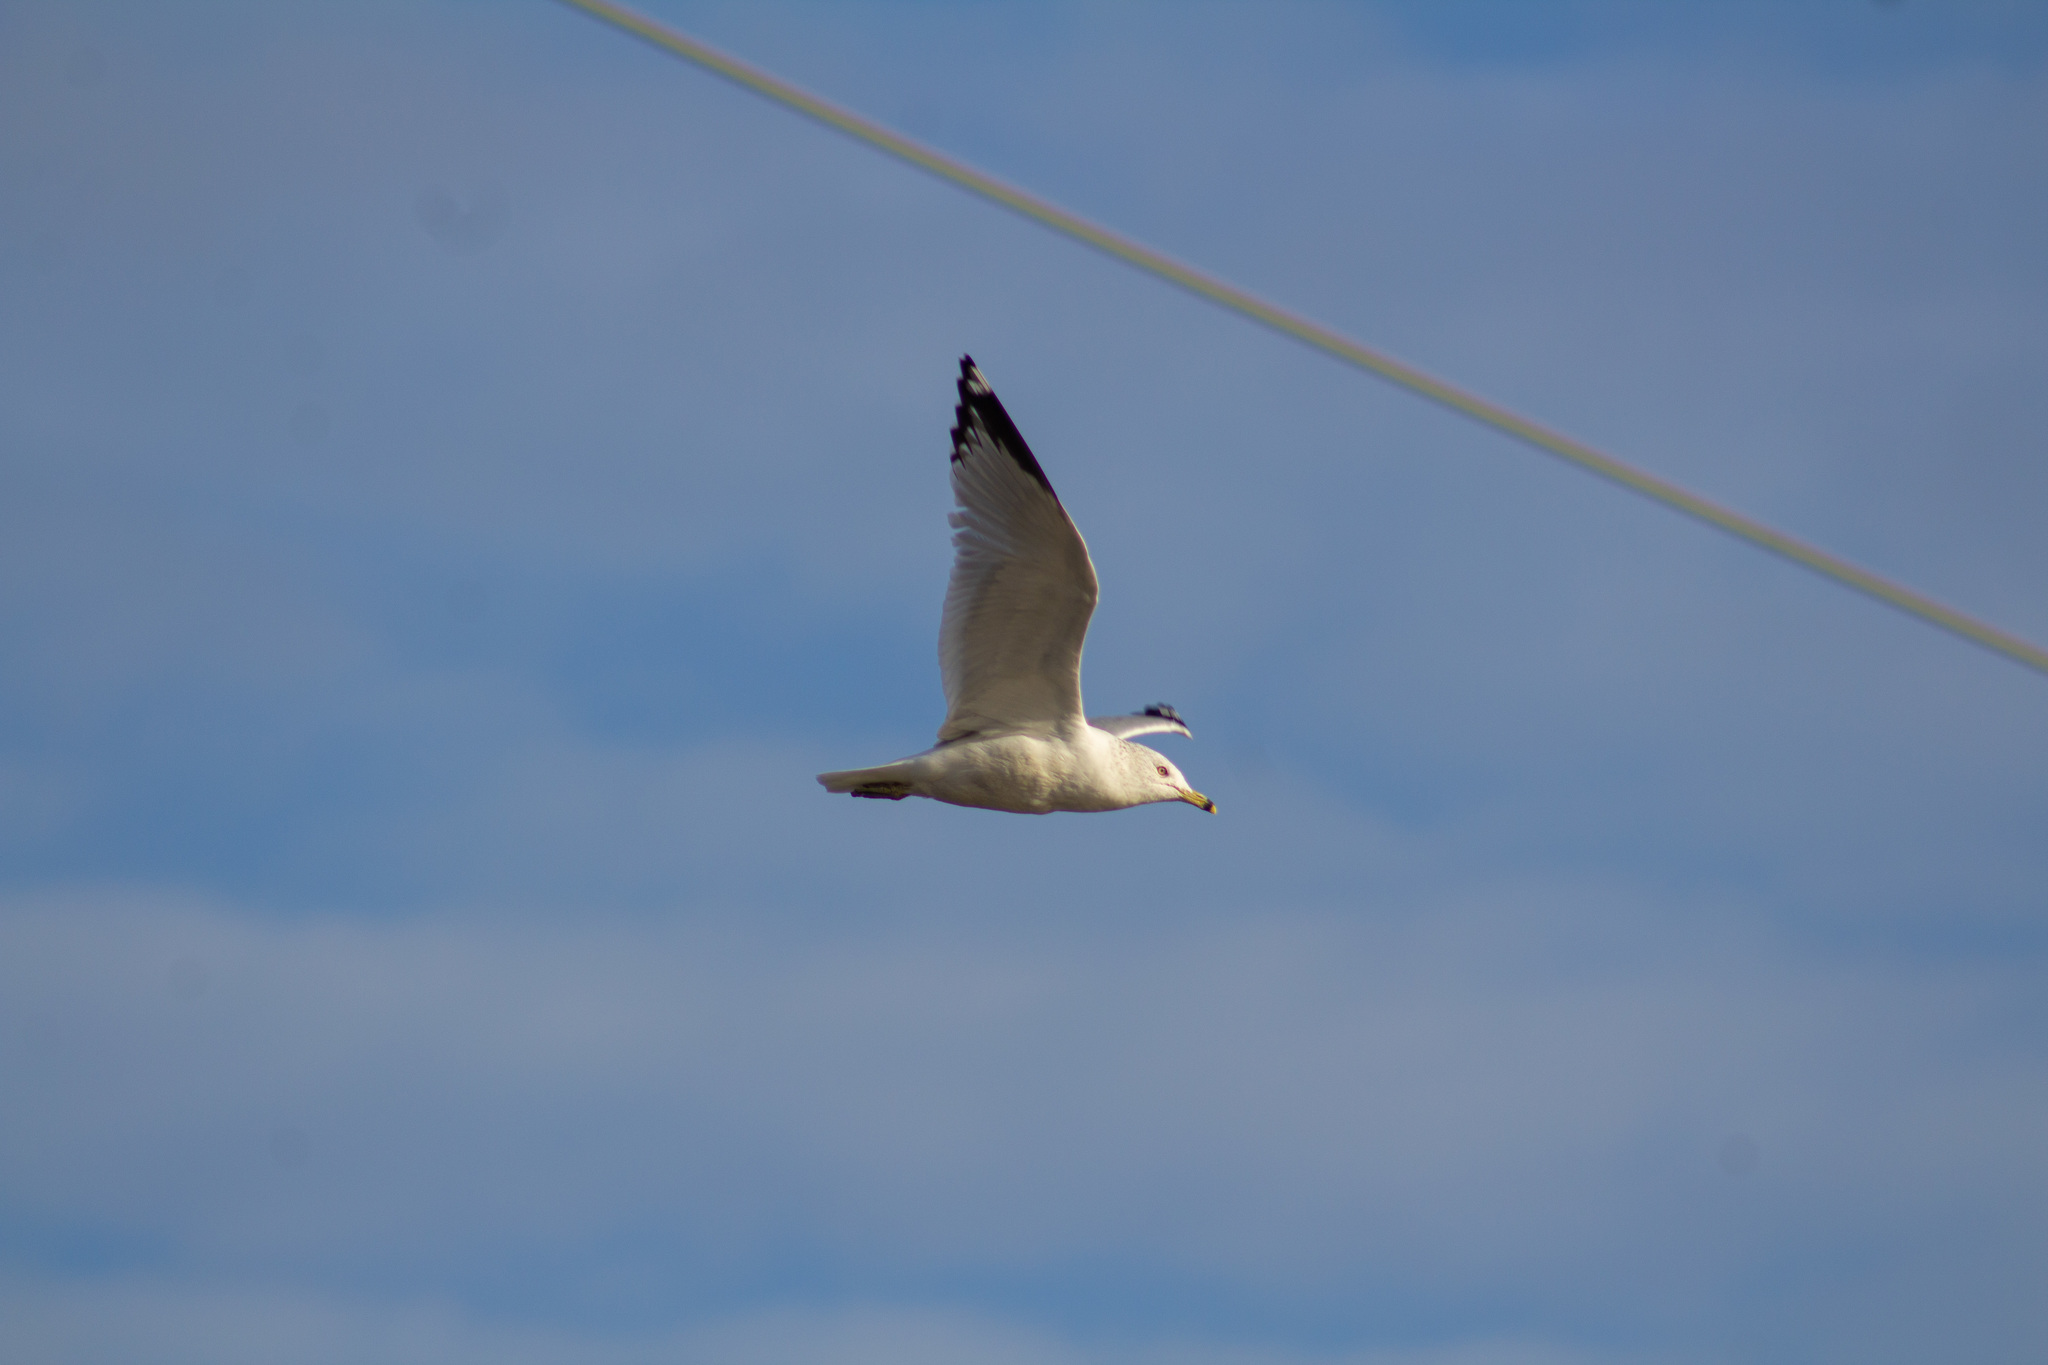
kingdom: Animalia
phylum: Chordata
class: Aves
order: Charadriiformes
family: Laridae
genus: Larus
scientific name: Larus delawarensis
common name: Ring-billed gull
